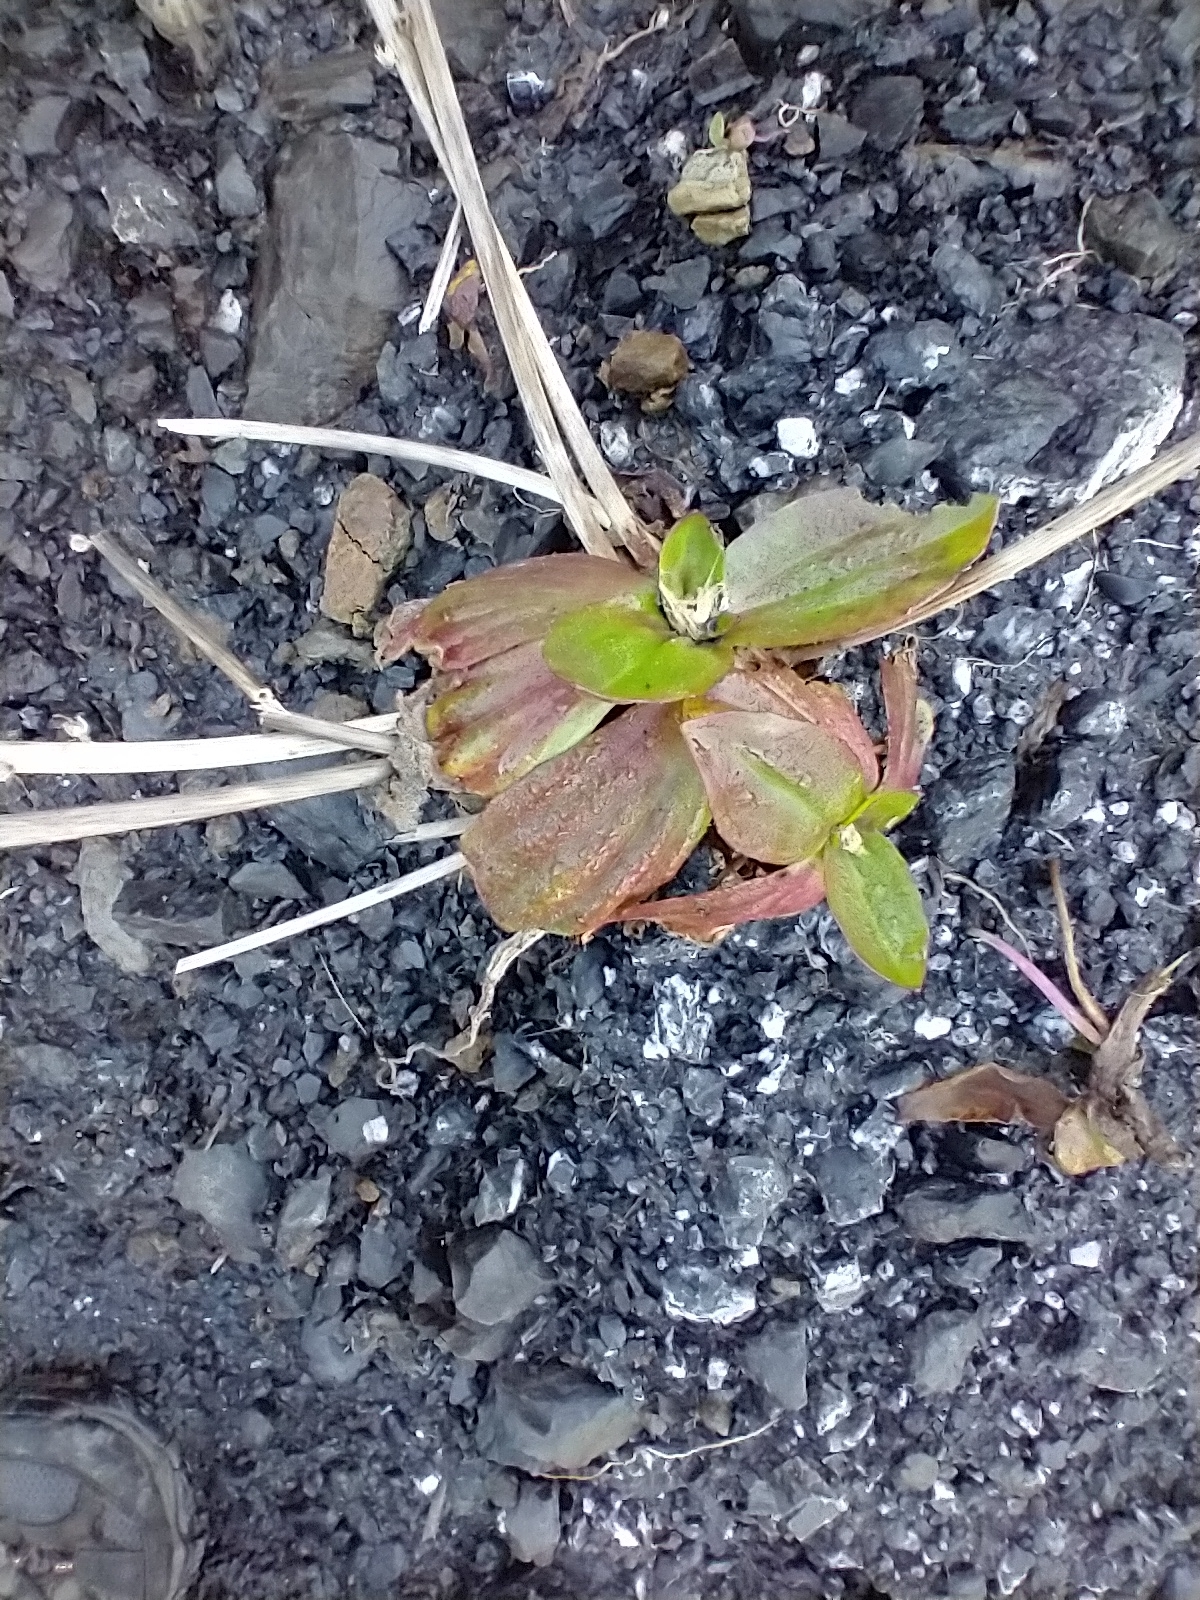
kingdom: Plantae
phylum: Tracheophyta
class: Magnoliopsida
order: Lamiales
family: Plantaginaceae
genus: Plantago
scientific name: Plantago subnuda
